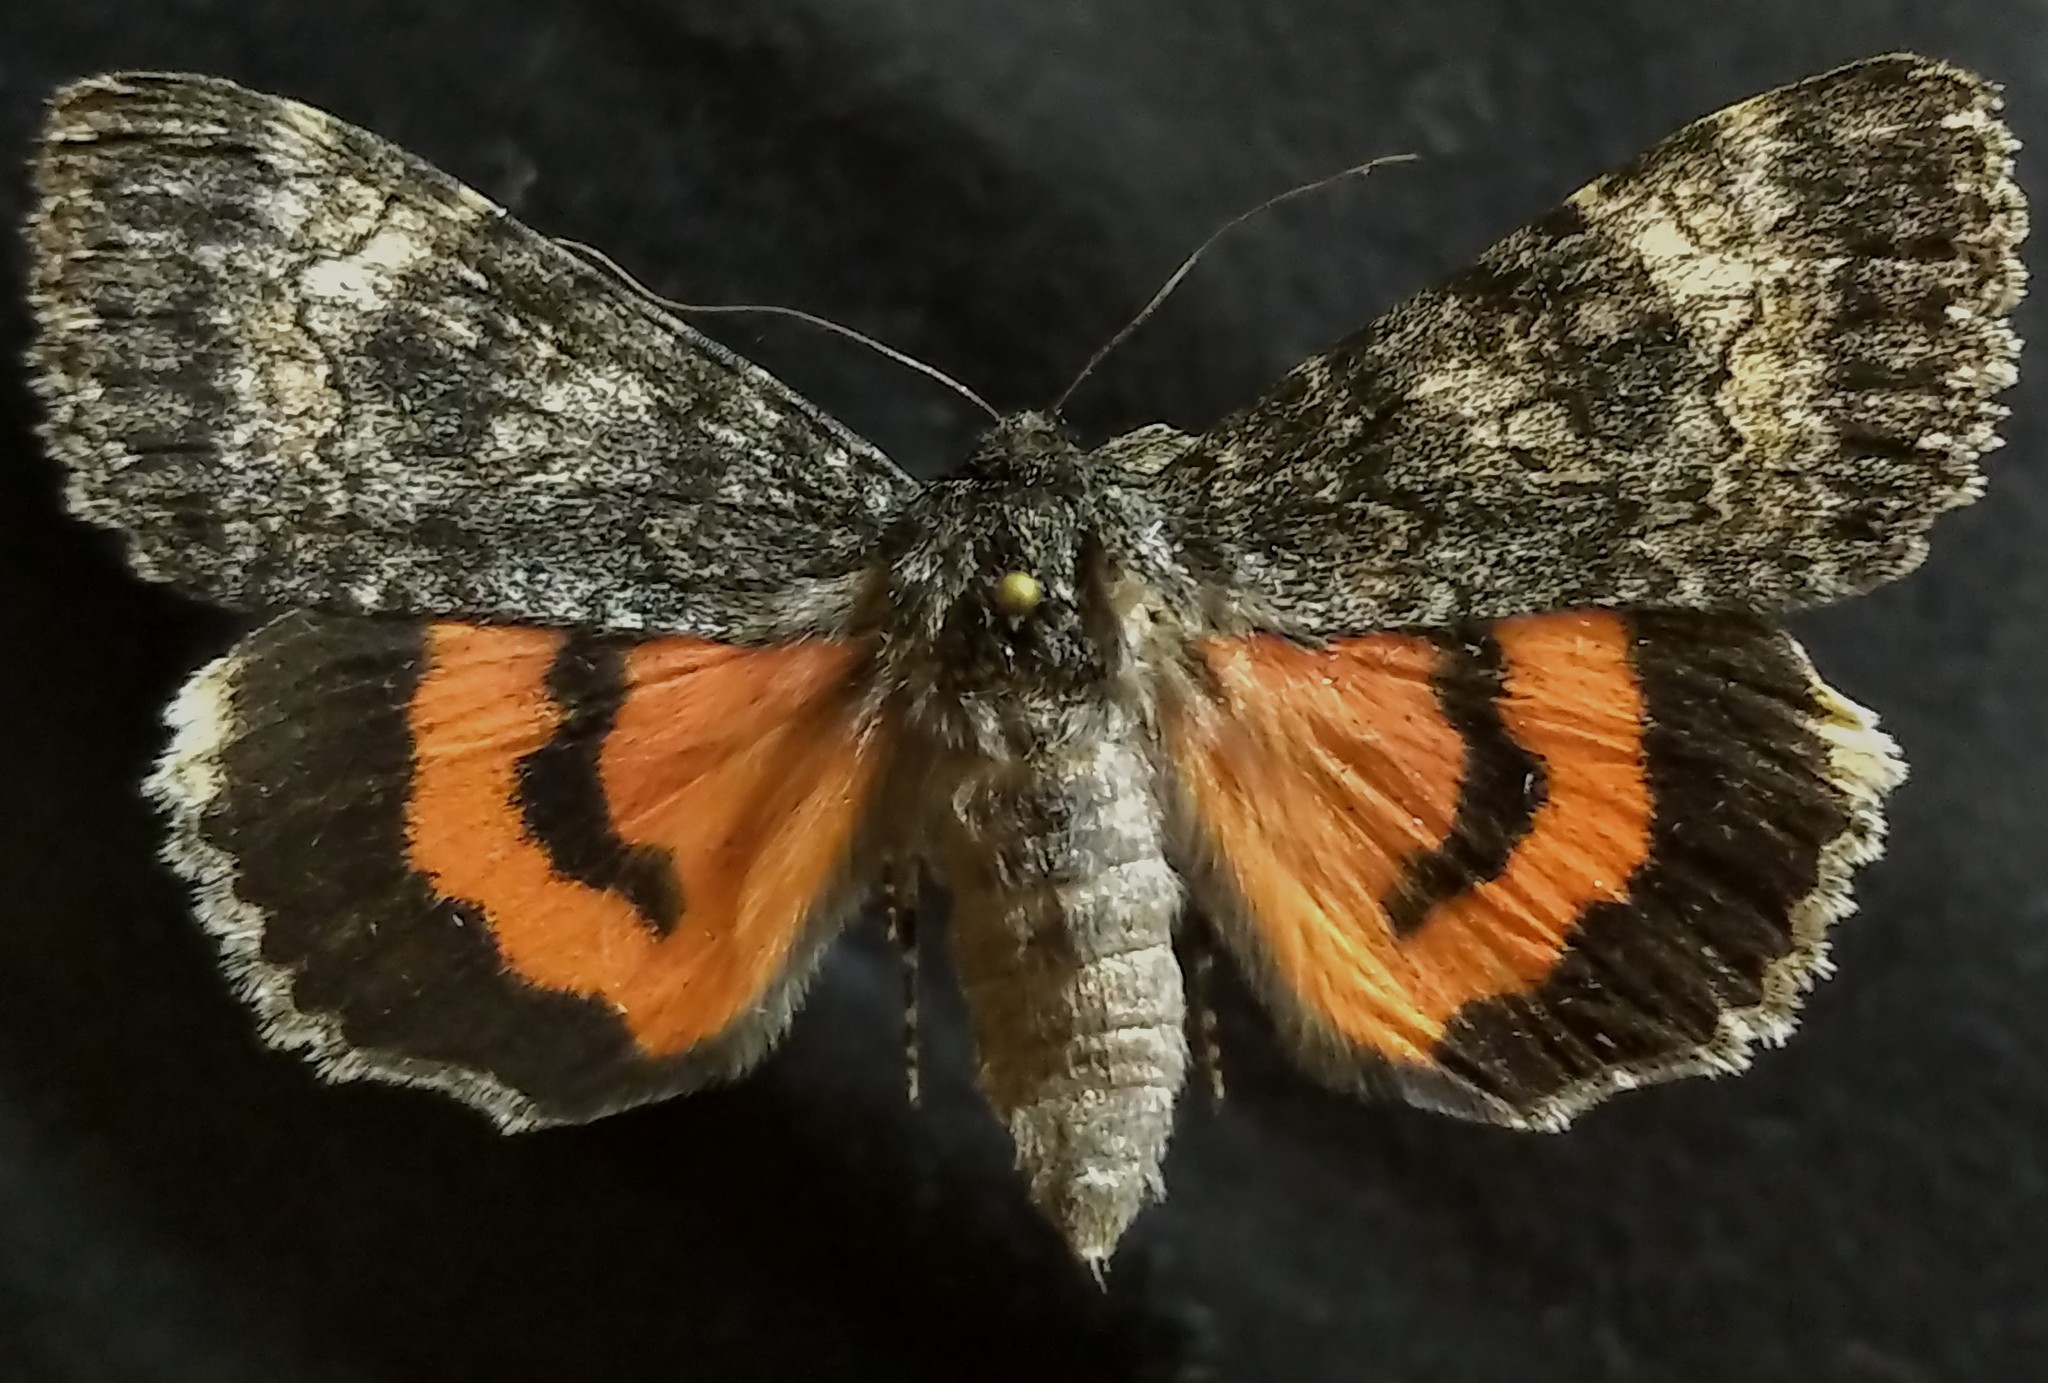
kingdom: Animalia
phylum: Arthropoda
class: Insecta
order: Lepidoptera
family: Erebidae
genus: Catocala
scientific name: Catocala briseis
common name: Briseis underwing
